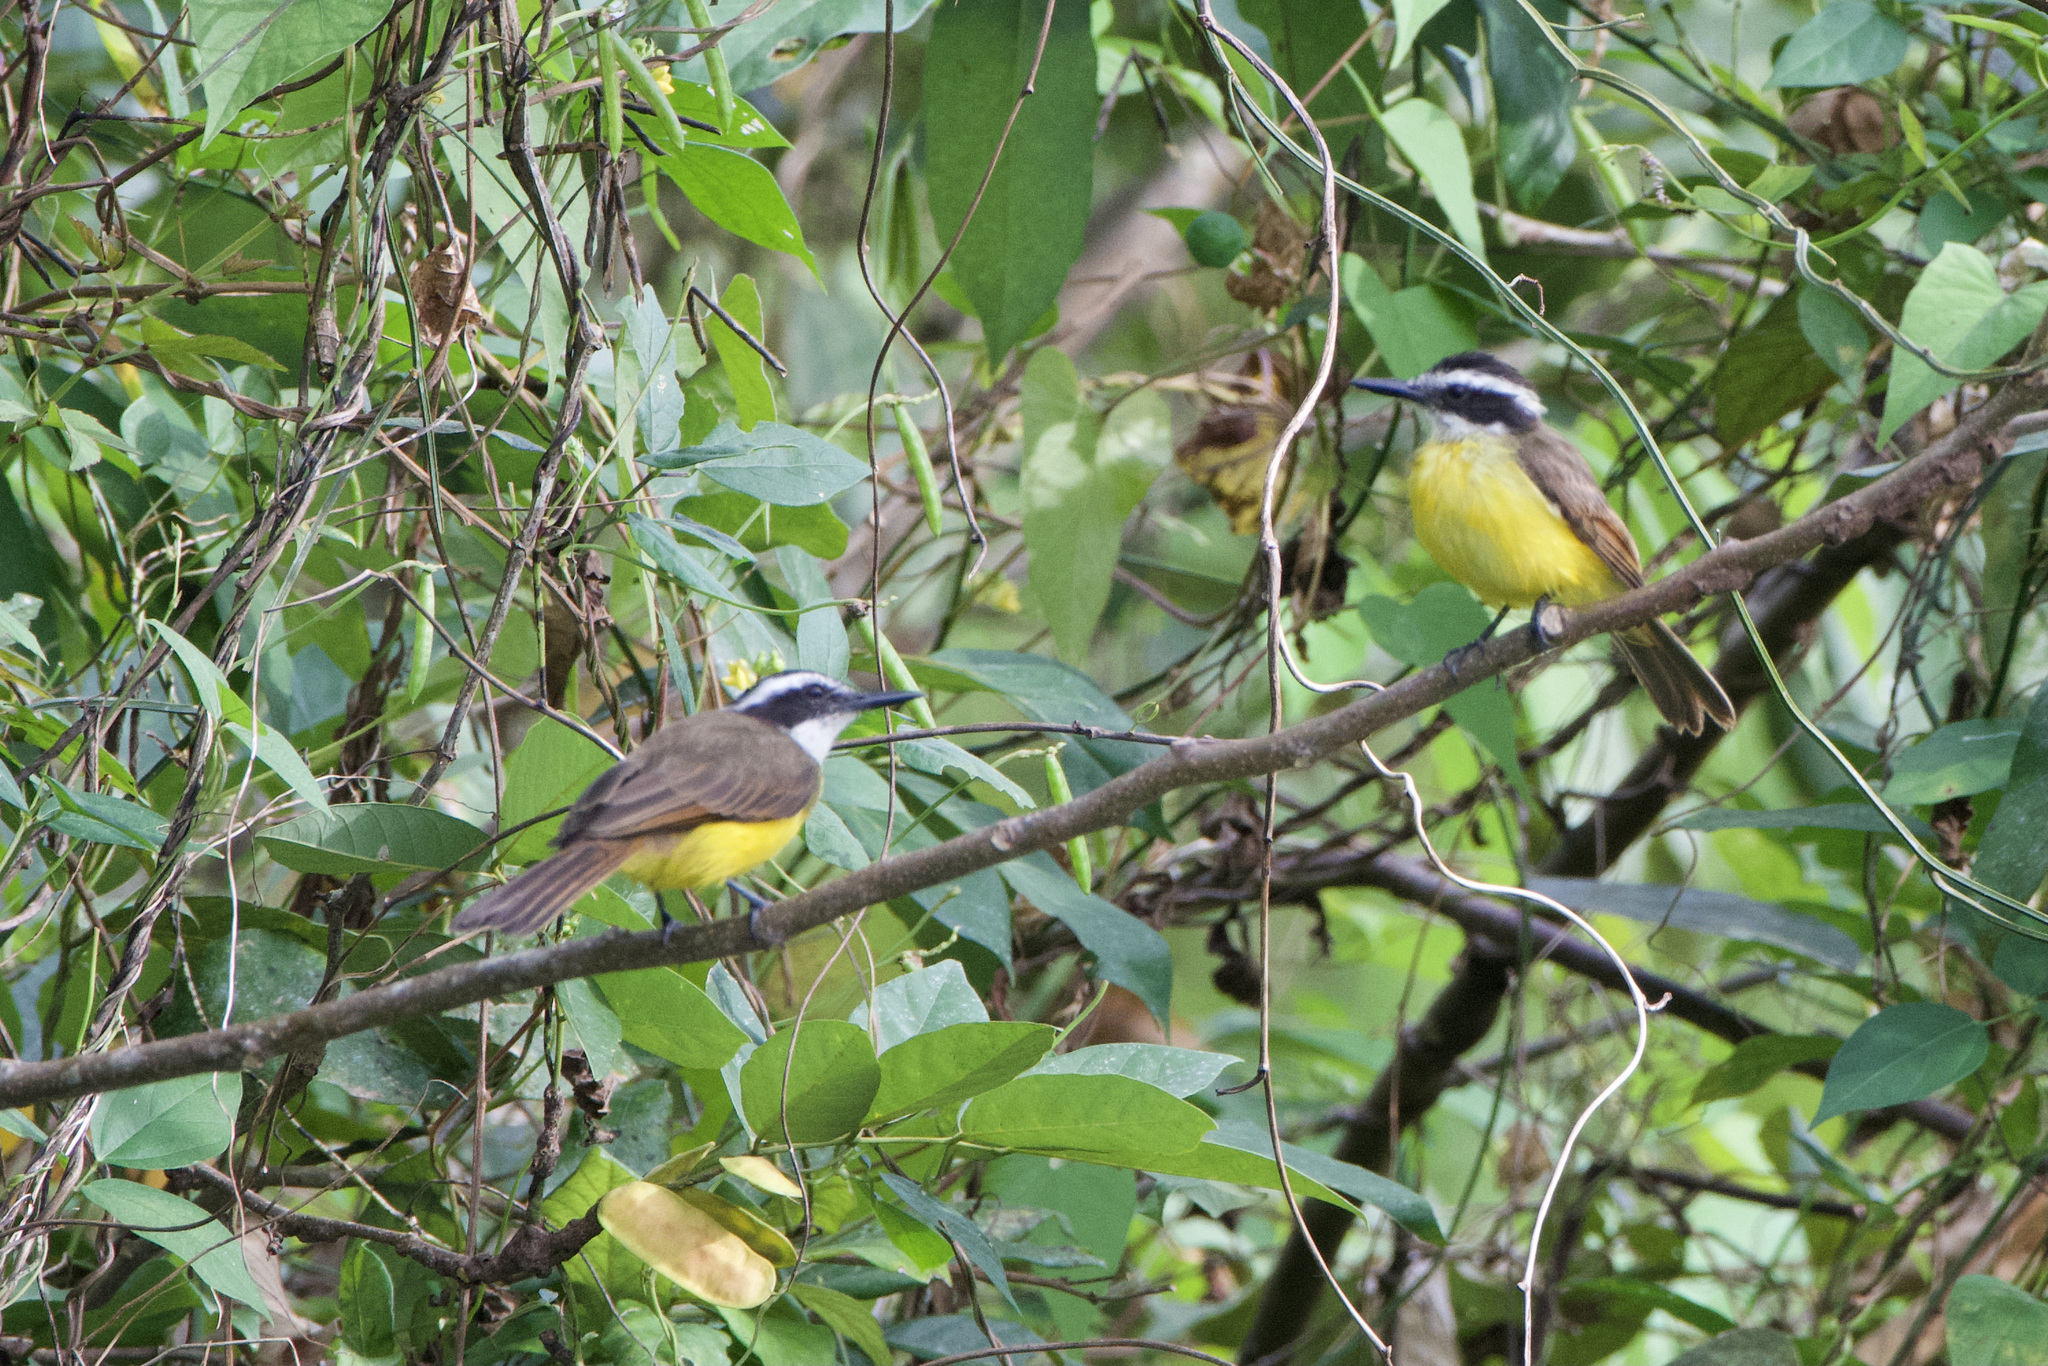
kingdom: Animalia
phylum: Chordata
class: Aves
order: Passeriformes
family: Tyrannidae
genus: Pitangus
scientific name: Pitangus lictor
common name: Lesser kiskadee
